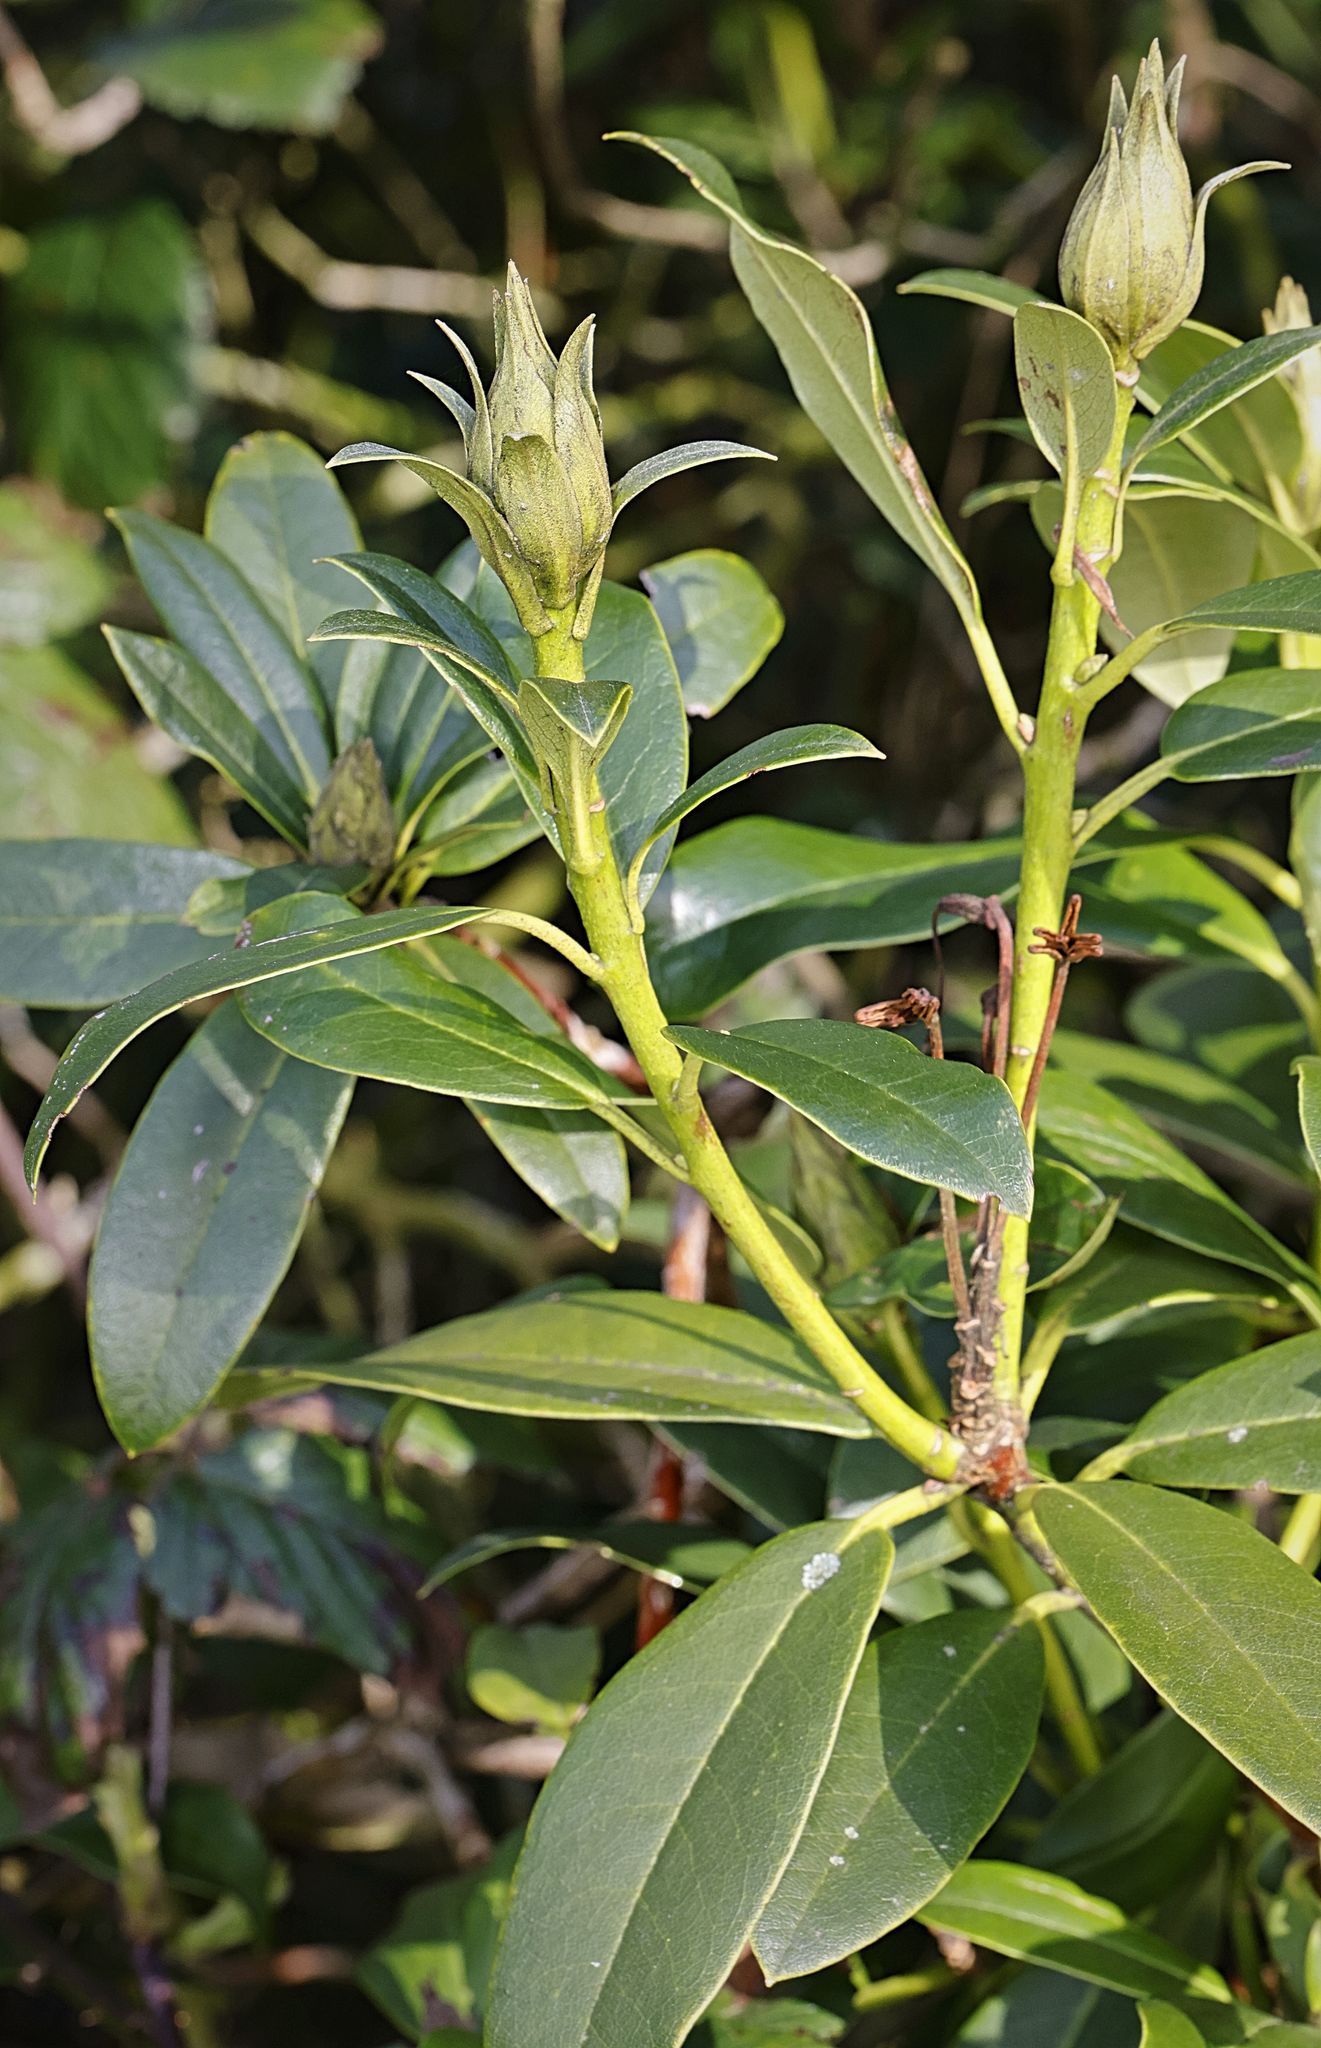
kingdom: Plantae
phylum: Tracheophyta
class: Magnoliopsida
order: Ericales
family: Ericaceae
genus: Rhododendron
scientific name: Rhododendron ponticum
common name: Rhododendron
